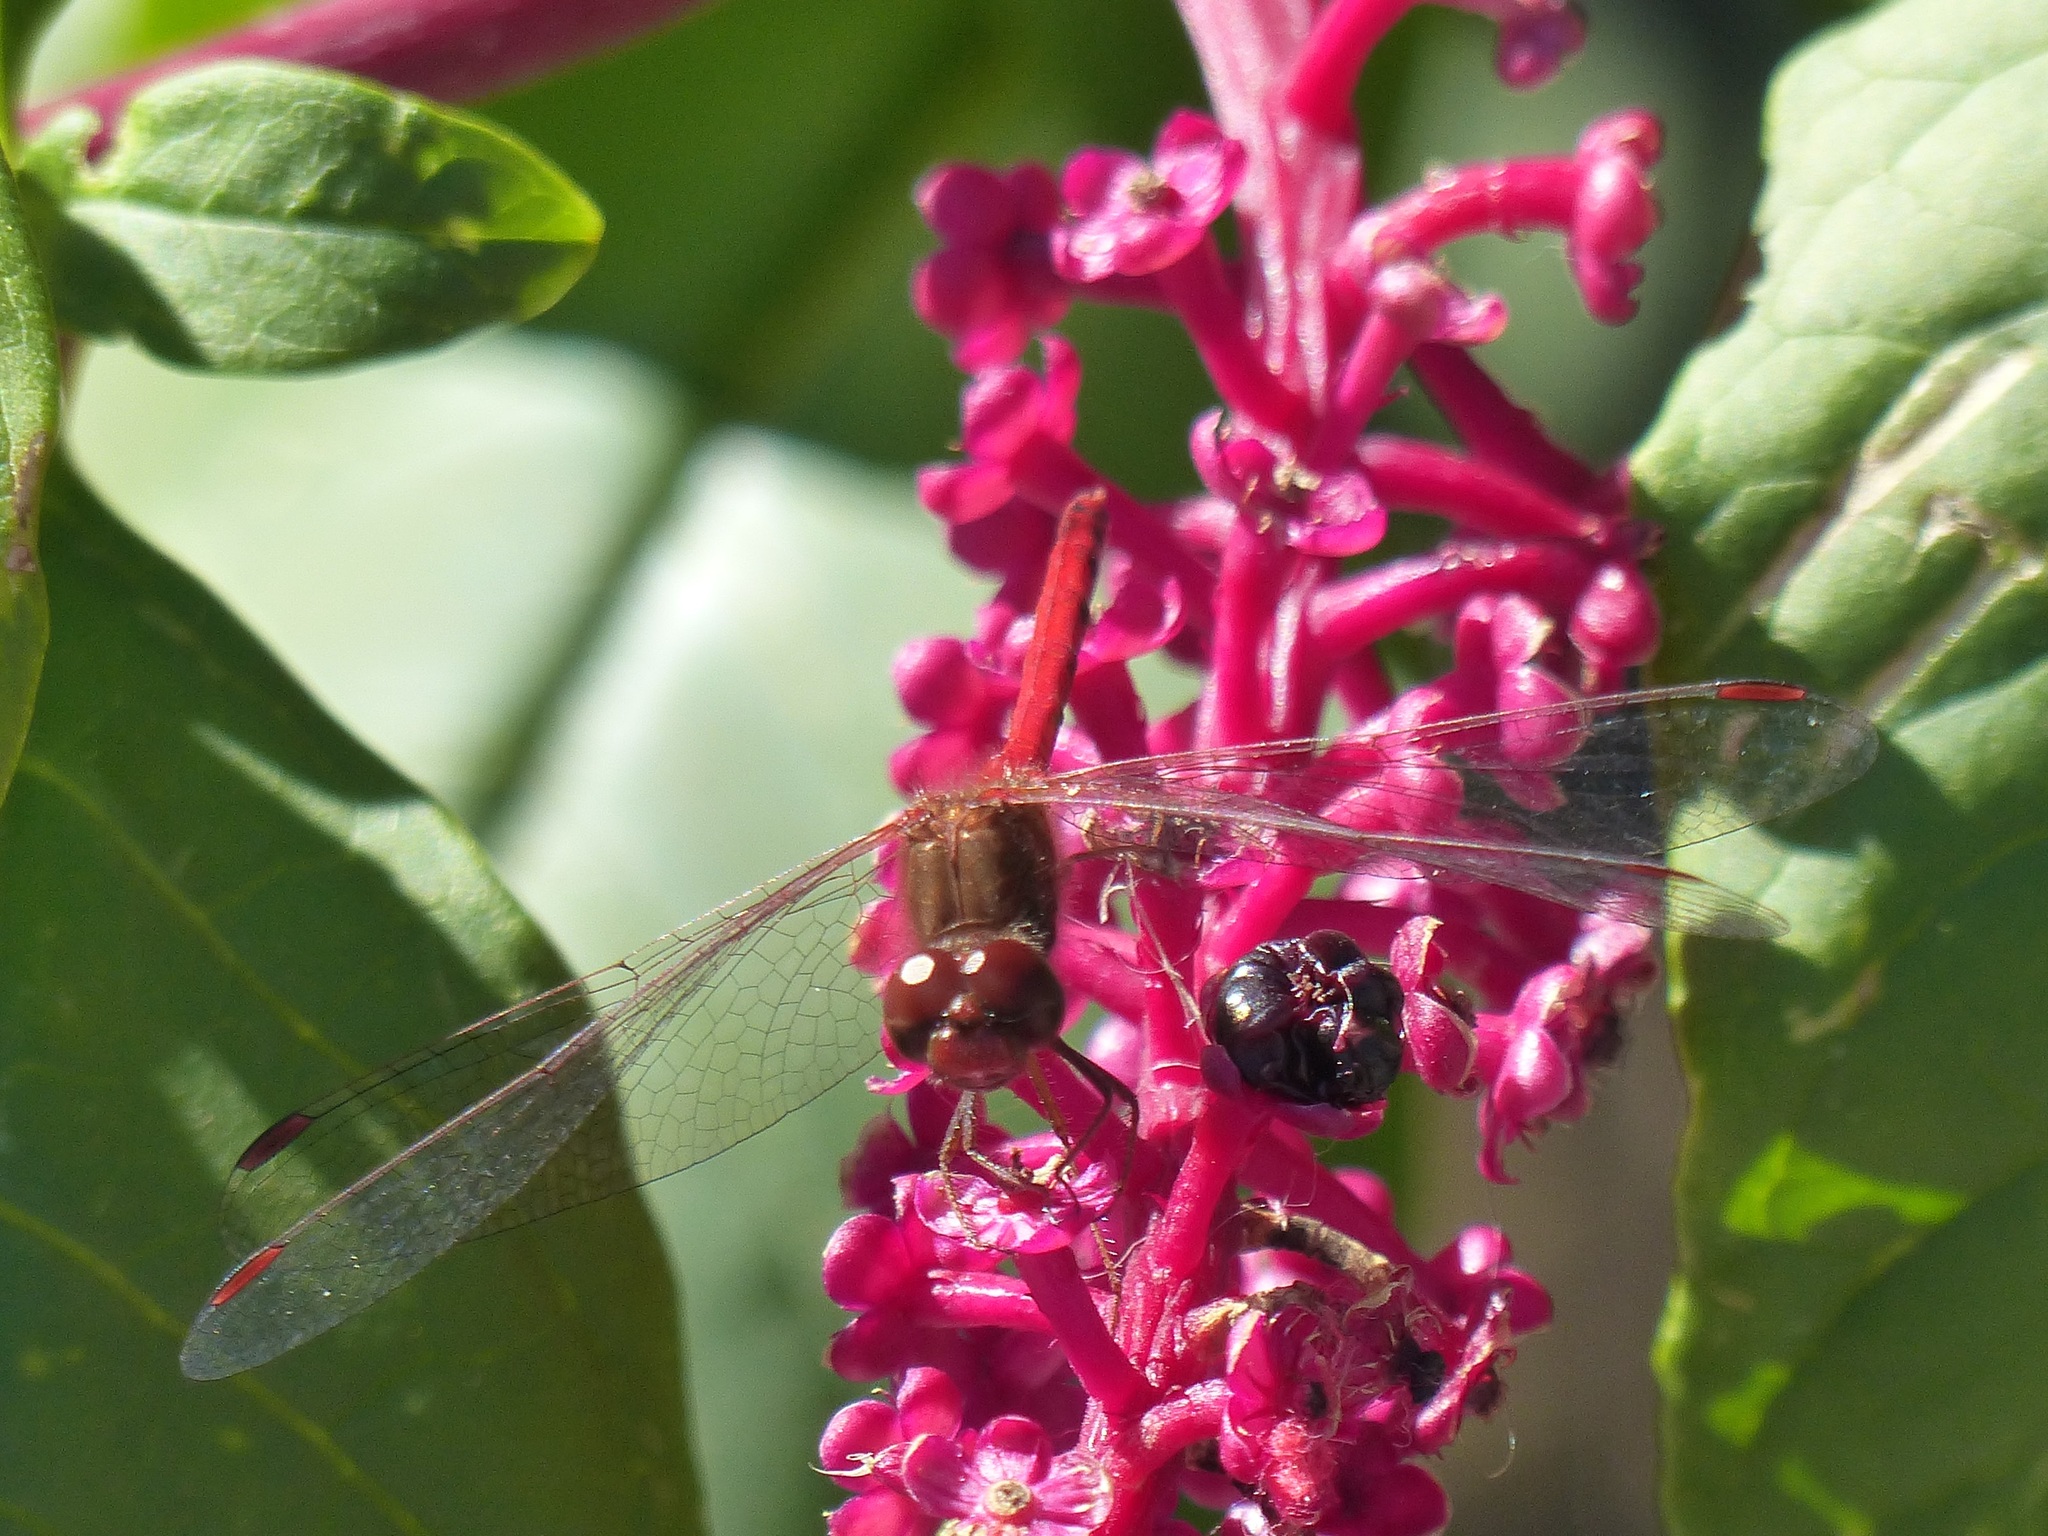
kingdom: Animalia
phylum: Arthropoda
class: Insecta
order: Odonata
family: Libellulidae
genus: Sympetrum
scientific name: Sympetrum vicinum
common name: Autumn meadowhawk
